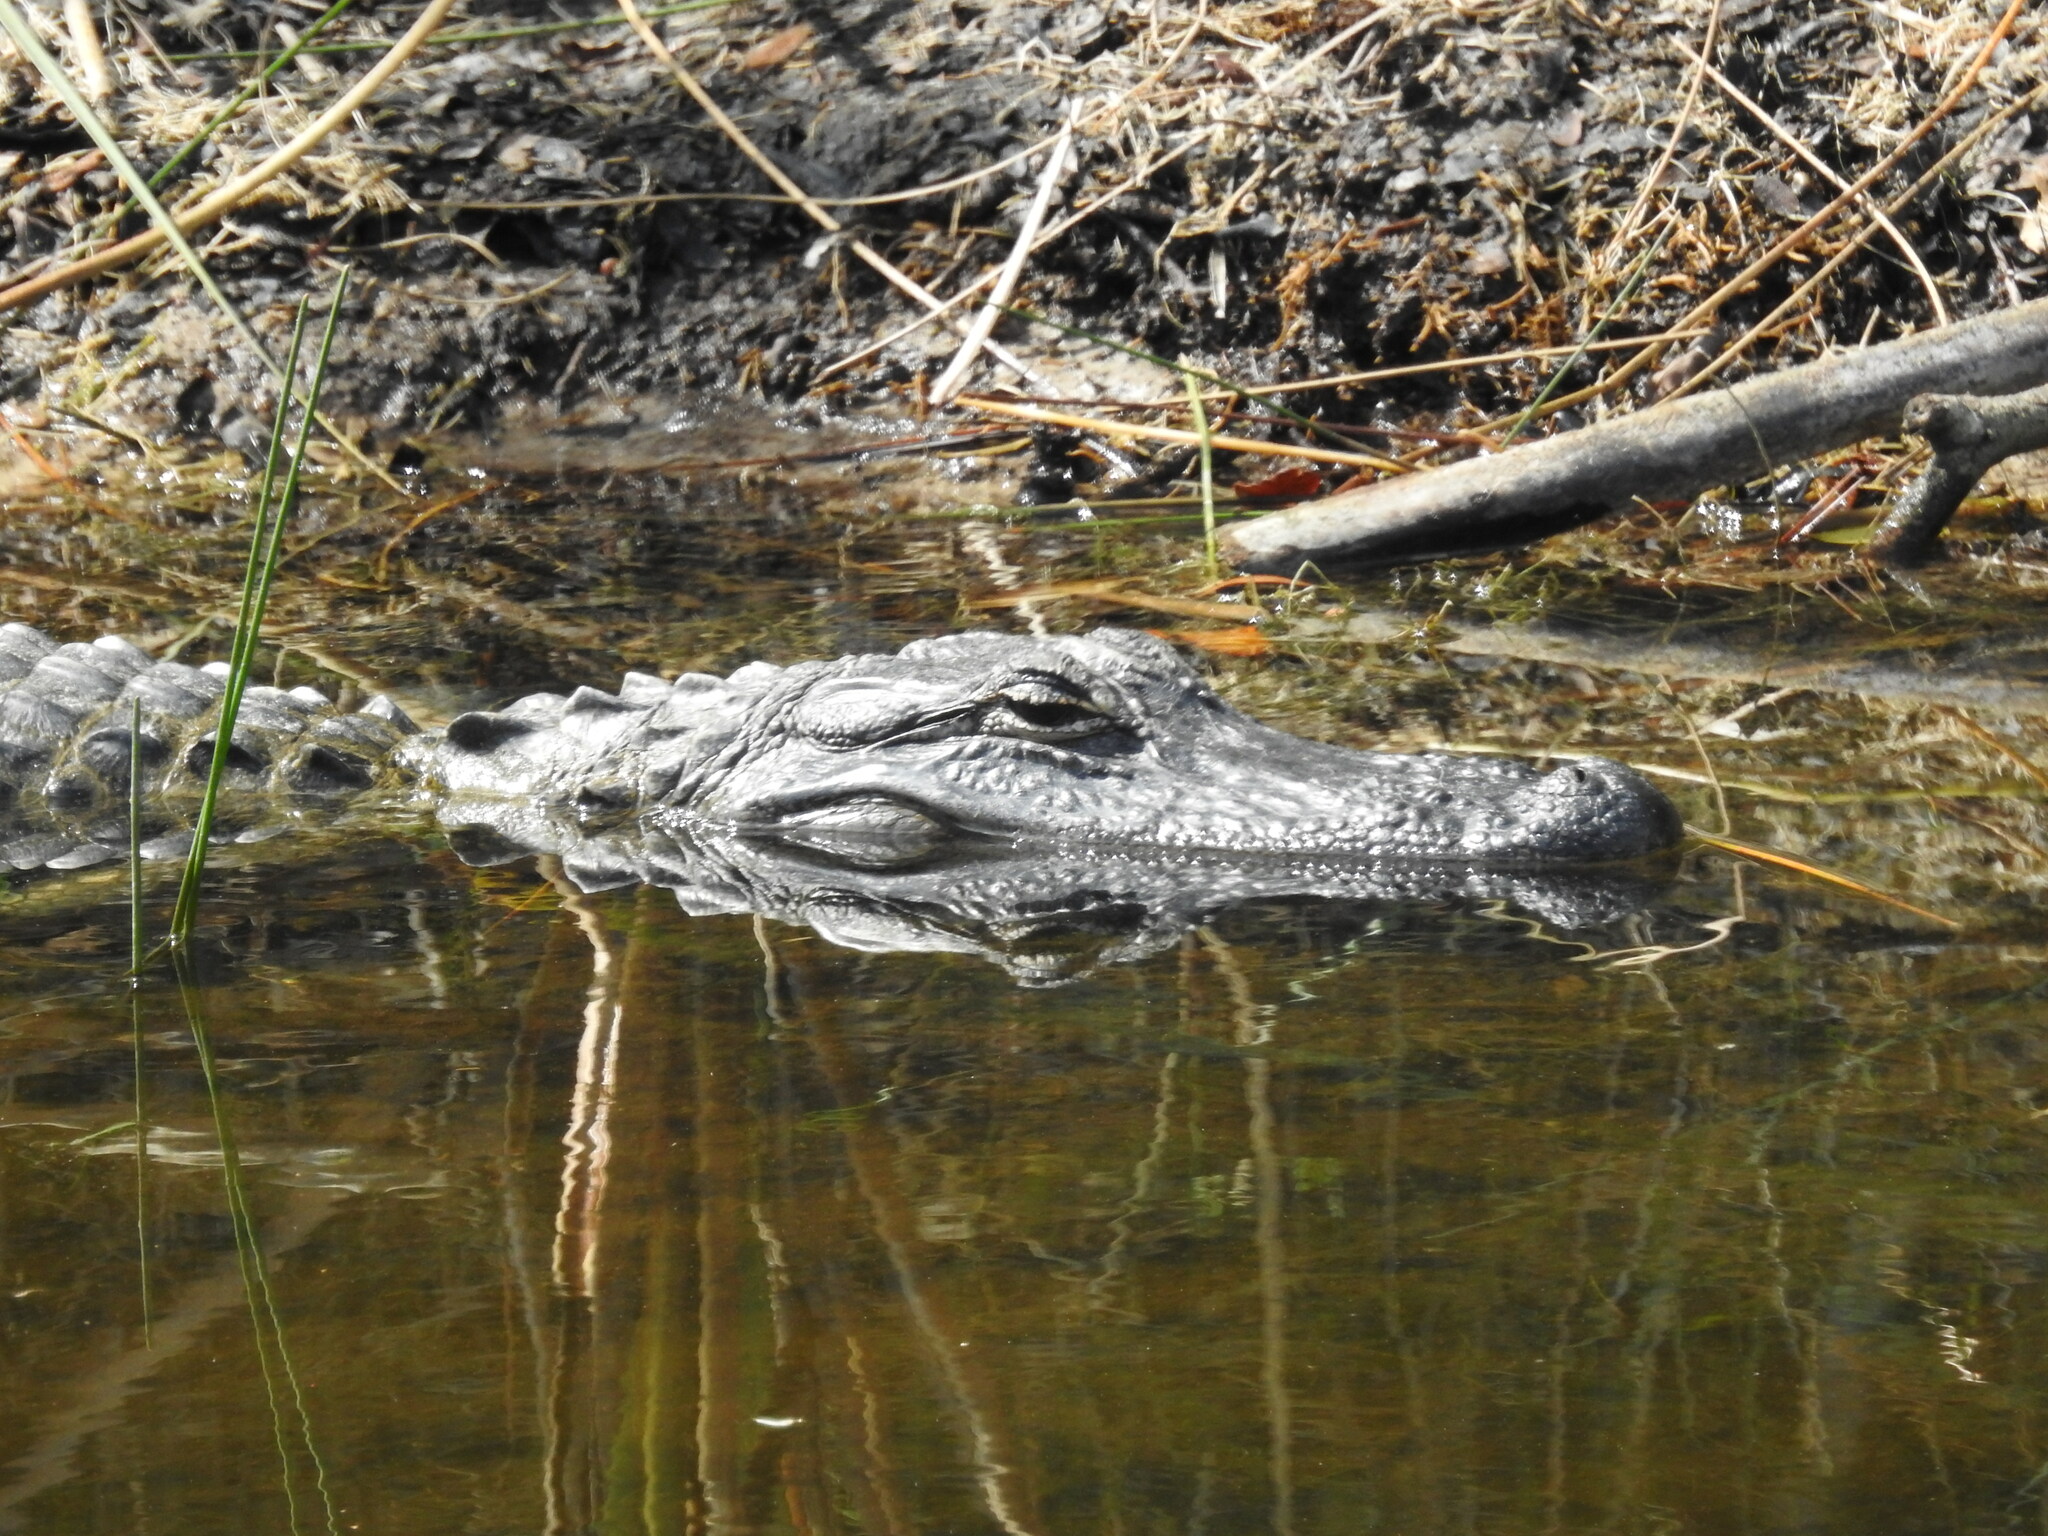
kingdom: Animalia
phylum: Chordata
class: Crocodylia
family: Alligatoridae
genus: Alligator
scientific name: Alligator mississippiensis
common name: American alligator
